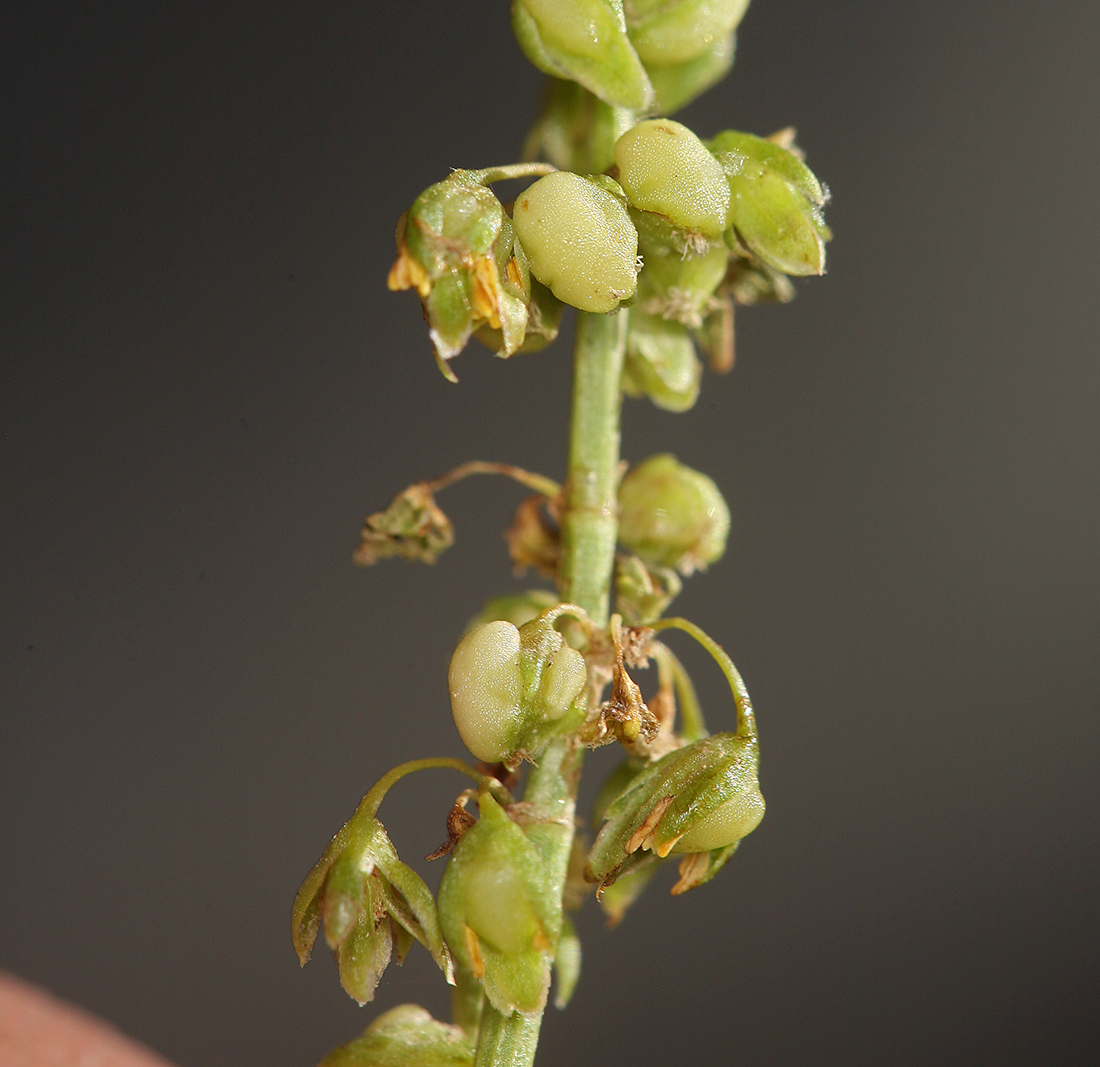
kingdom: Plantae
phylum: Tracheophyta
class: Magnoliopsida
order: Caryophyllales
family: Polygonaceae
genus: Rumex
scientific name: Rumex salicifolius
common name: Willow-leaved dock
